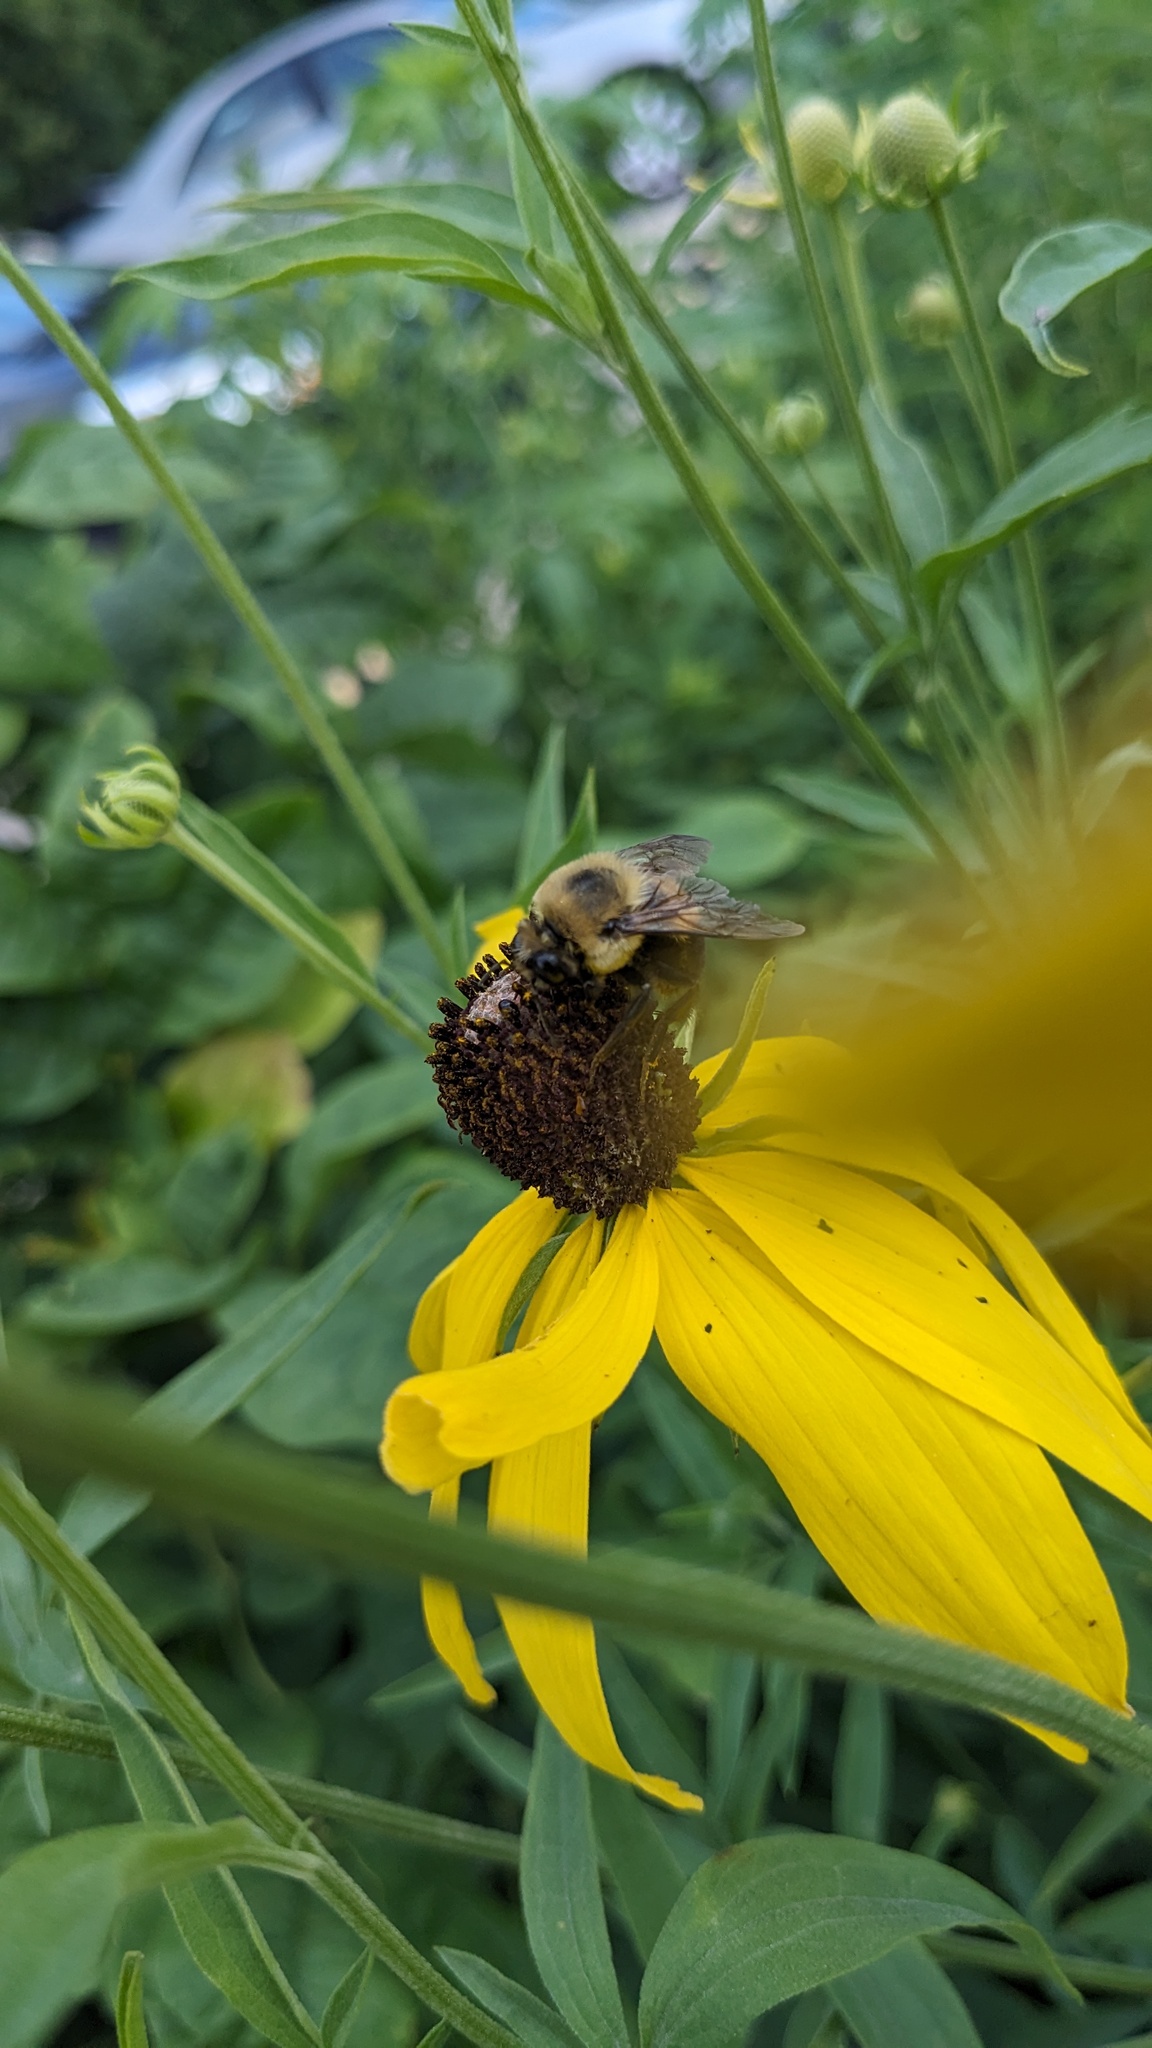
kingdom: Animalia
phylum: Arthropoda
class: Insecta
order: Hymenoptera
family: Apidae
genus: Bombus
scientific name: Bombus griseocollis
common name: Brown-belted bumble bee
